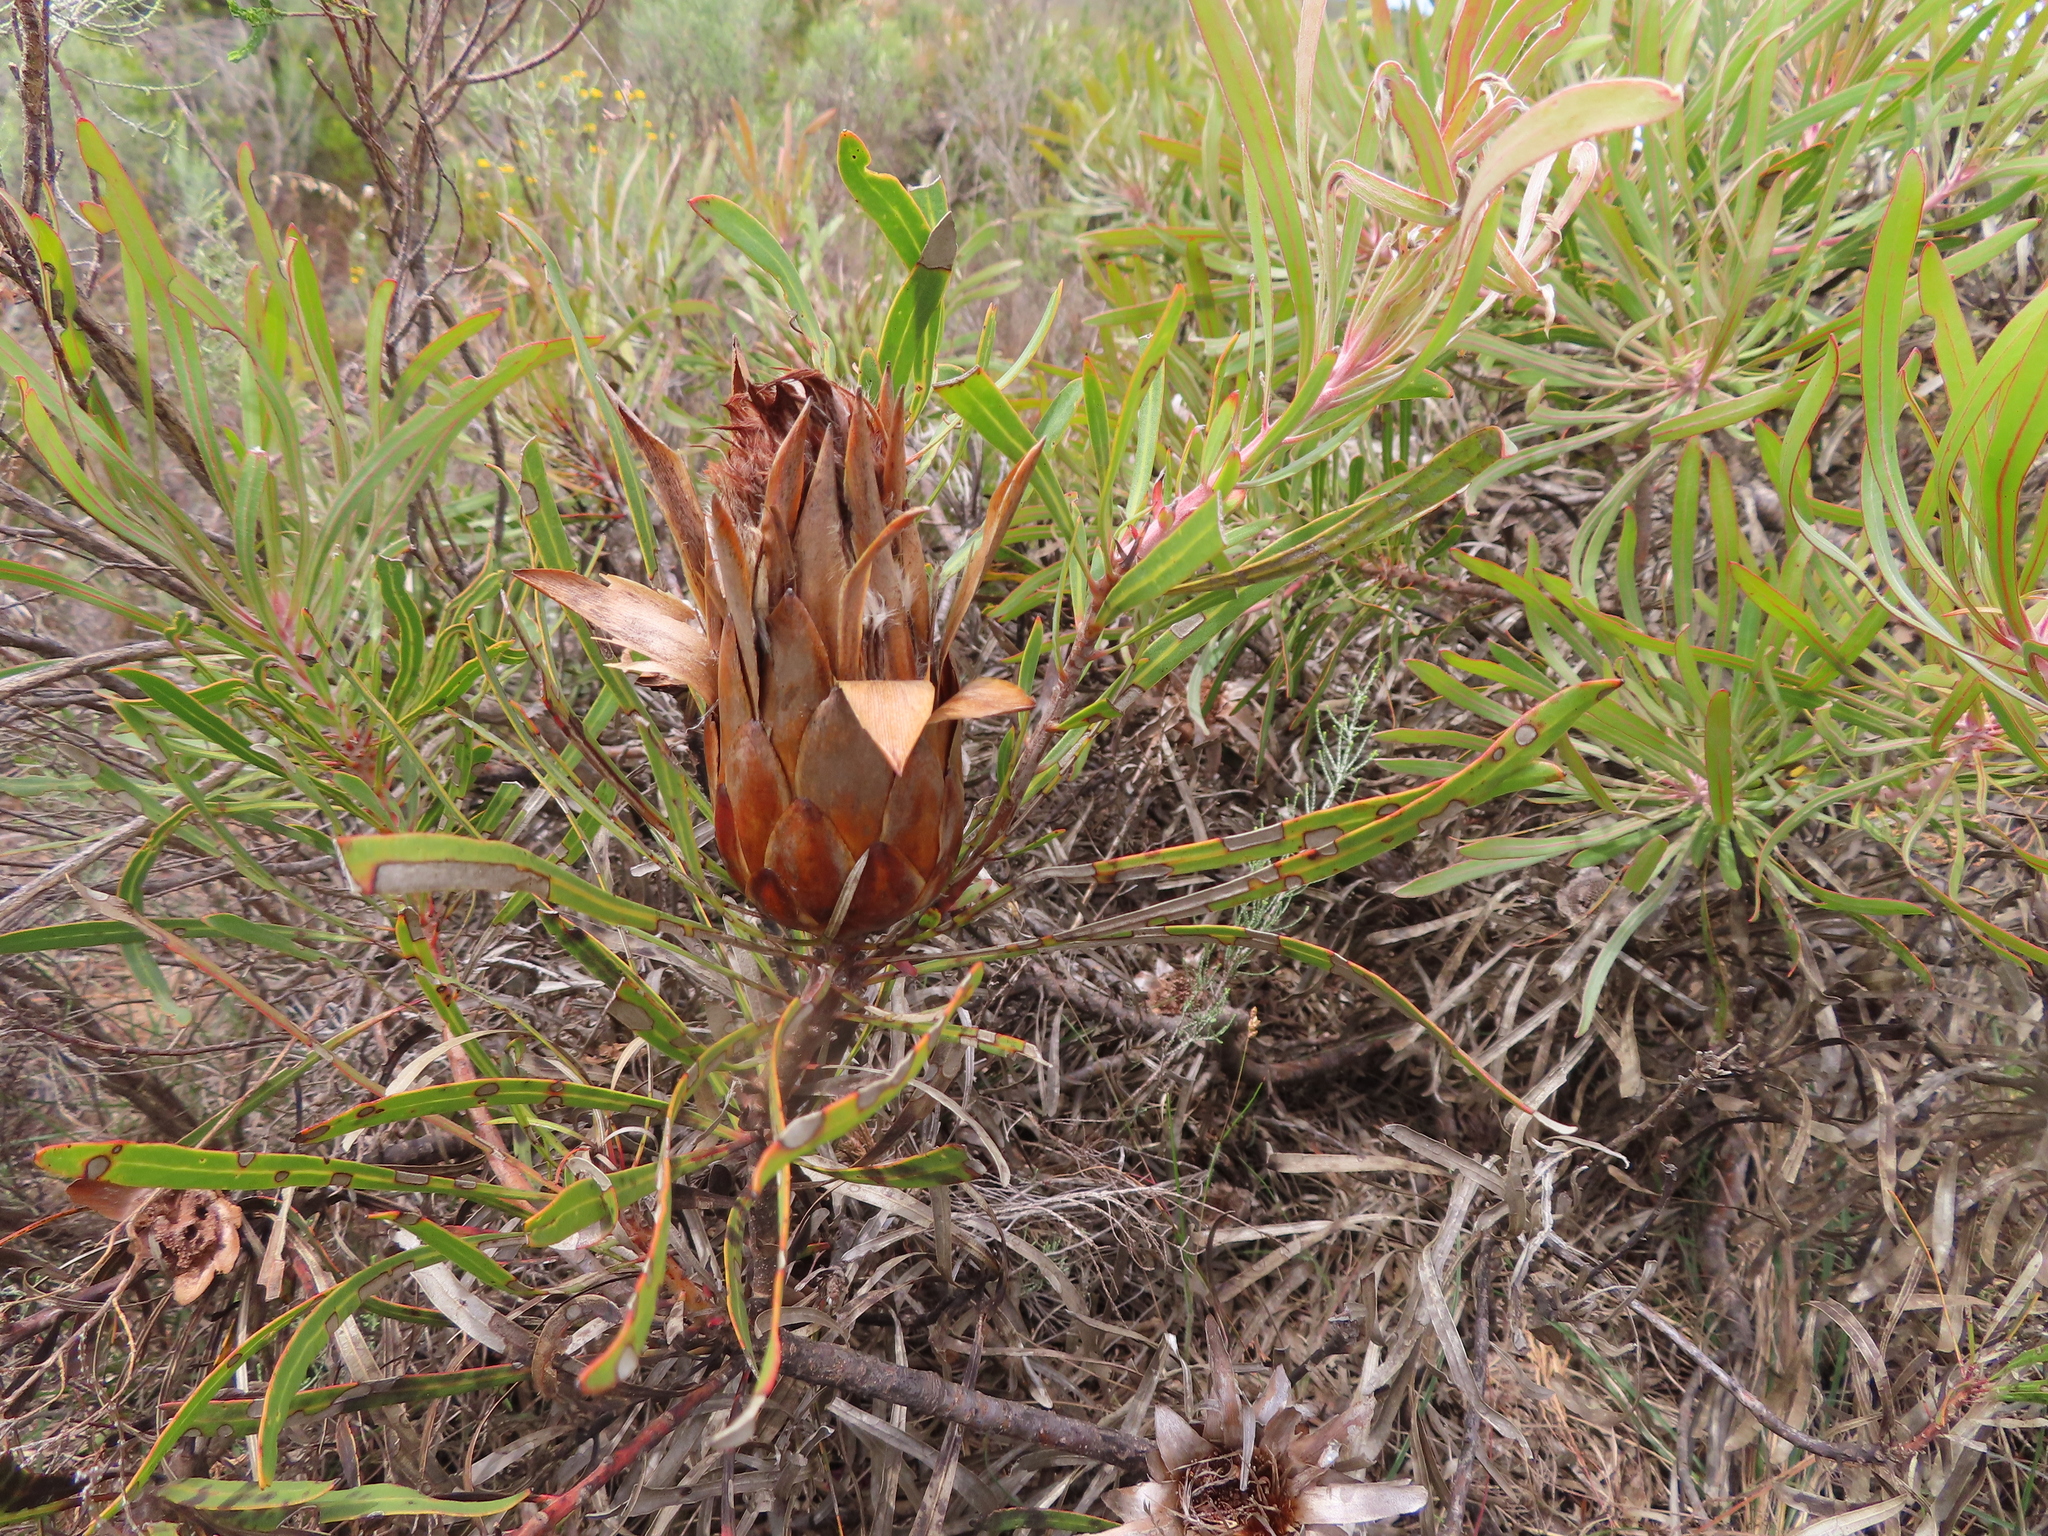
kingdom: Plantae
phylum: Tracheophyta
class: Magnoliopsida
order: Proteales
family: Proteaceae
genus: Protea
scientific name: Protea longifolia
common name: Long-leaf sugarbush
